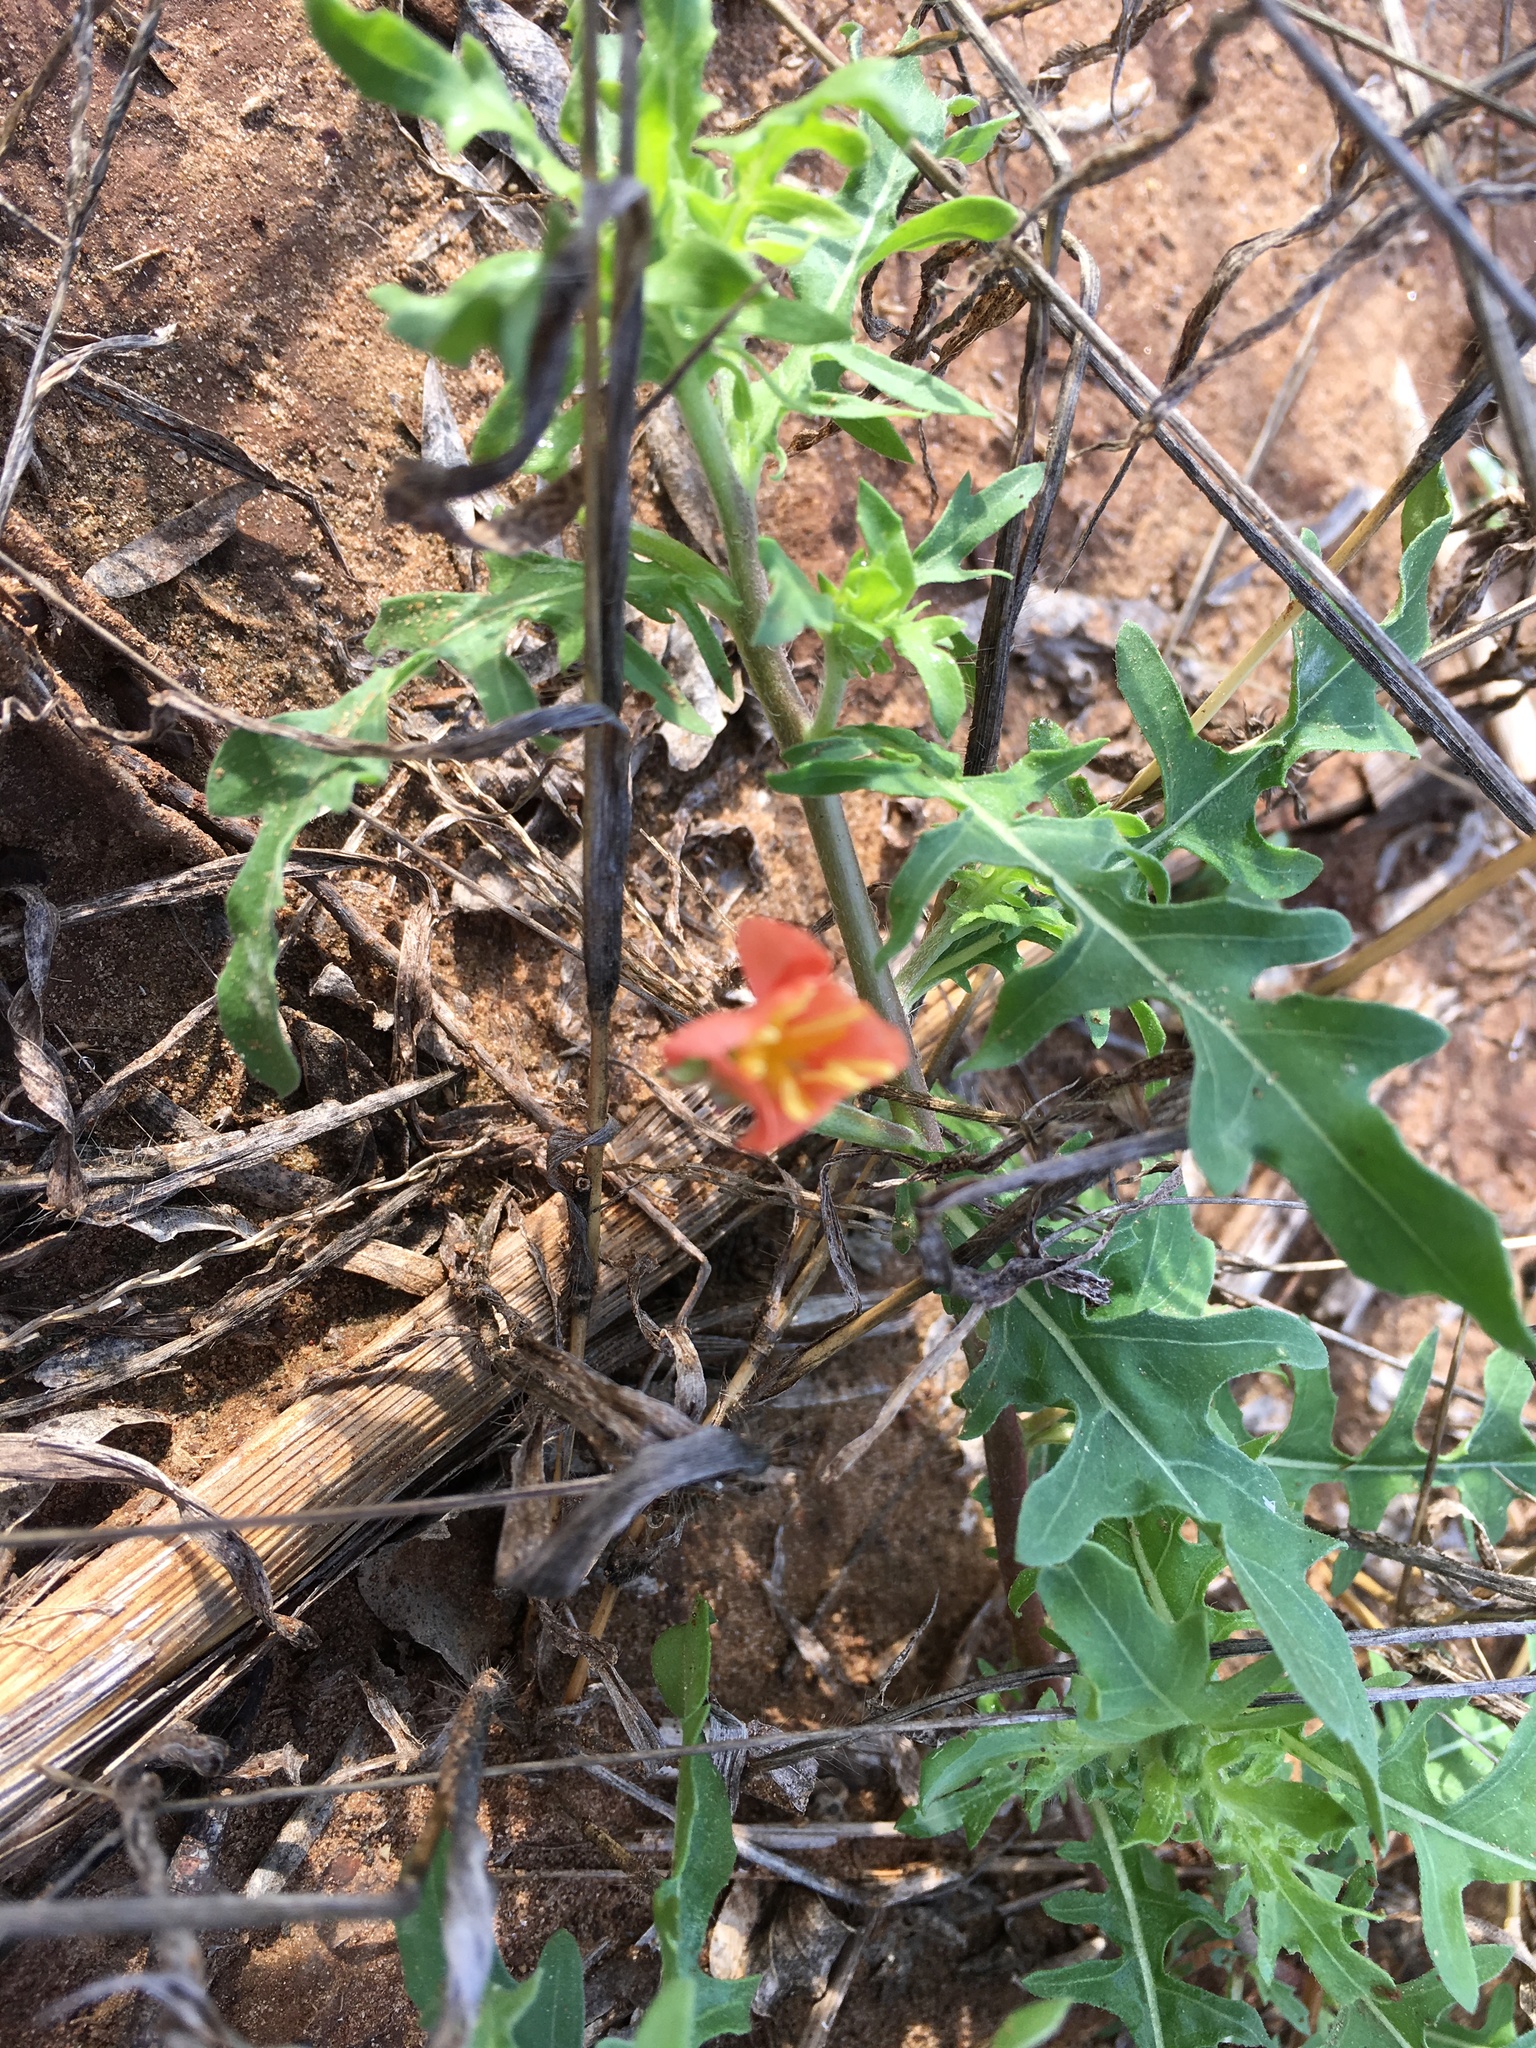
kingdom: Plantae
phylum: Tracheophyta
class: Magnoliopsida
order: Myrtales
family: Onagraceae
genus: Oenothera
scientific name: Oenothera laciniata
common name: Cut-leaved evening-primrose
